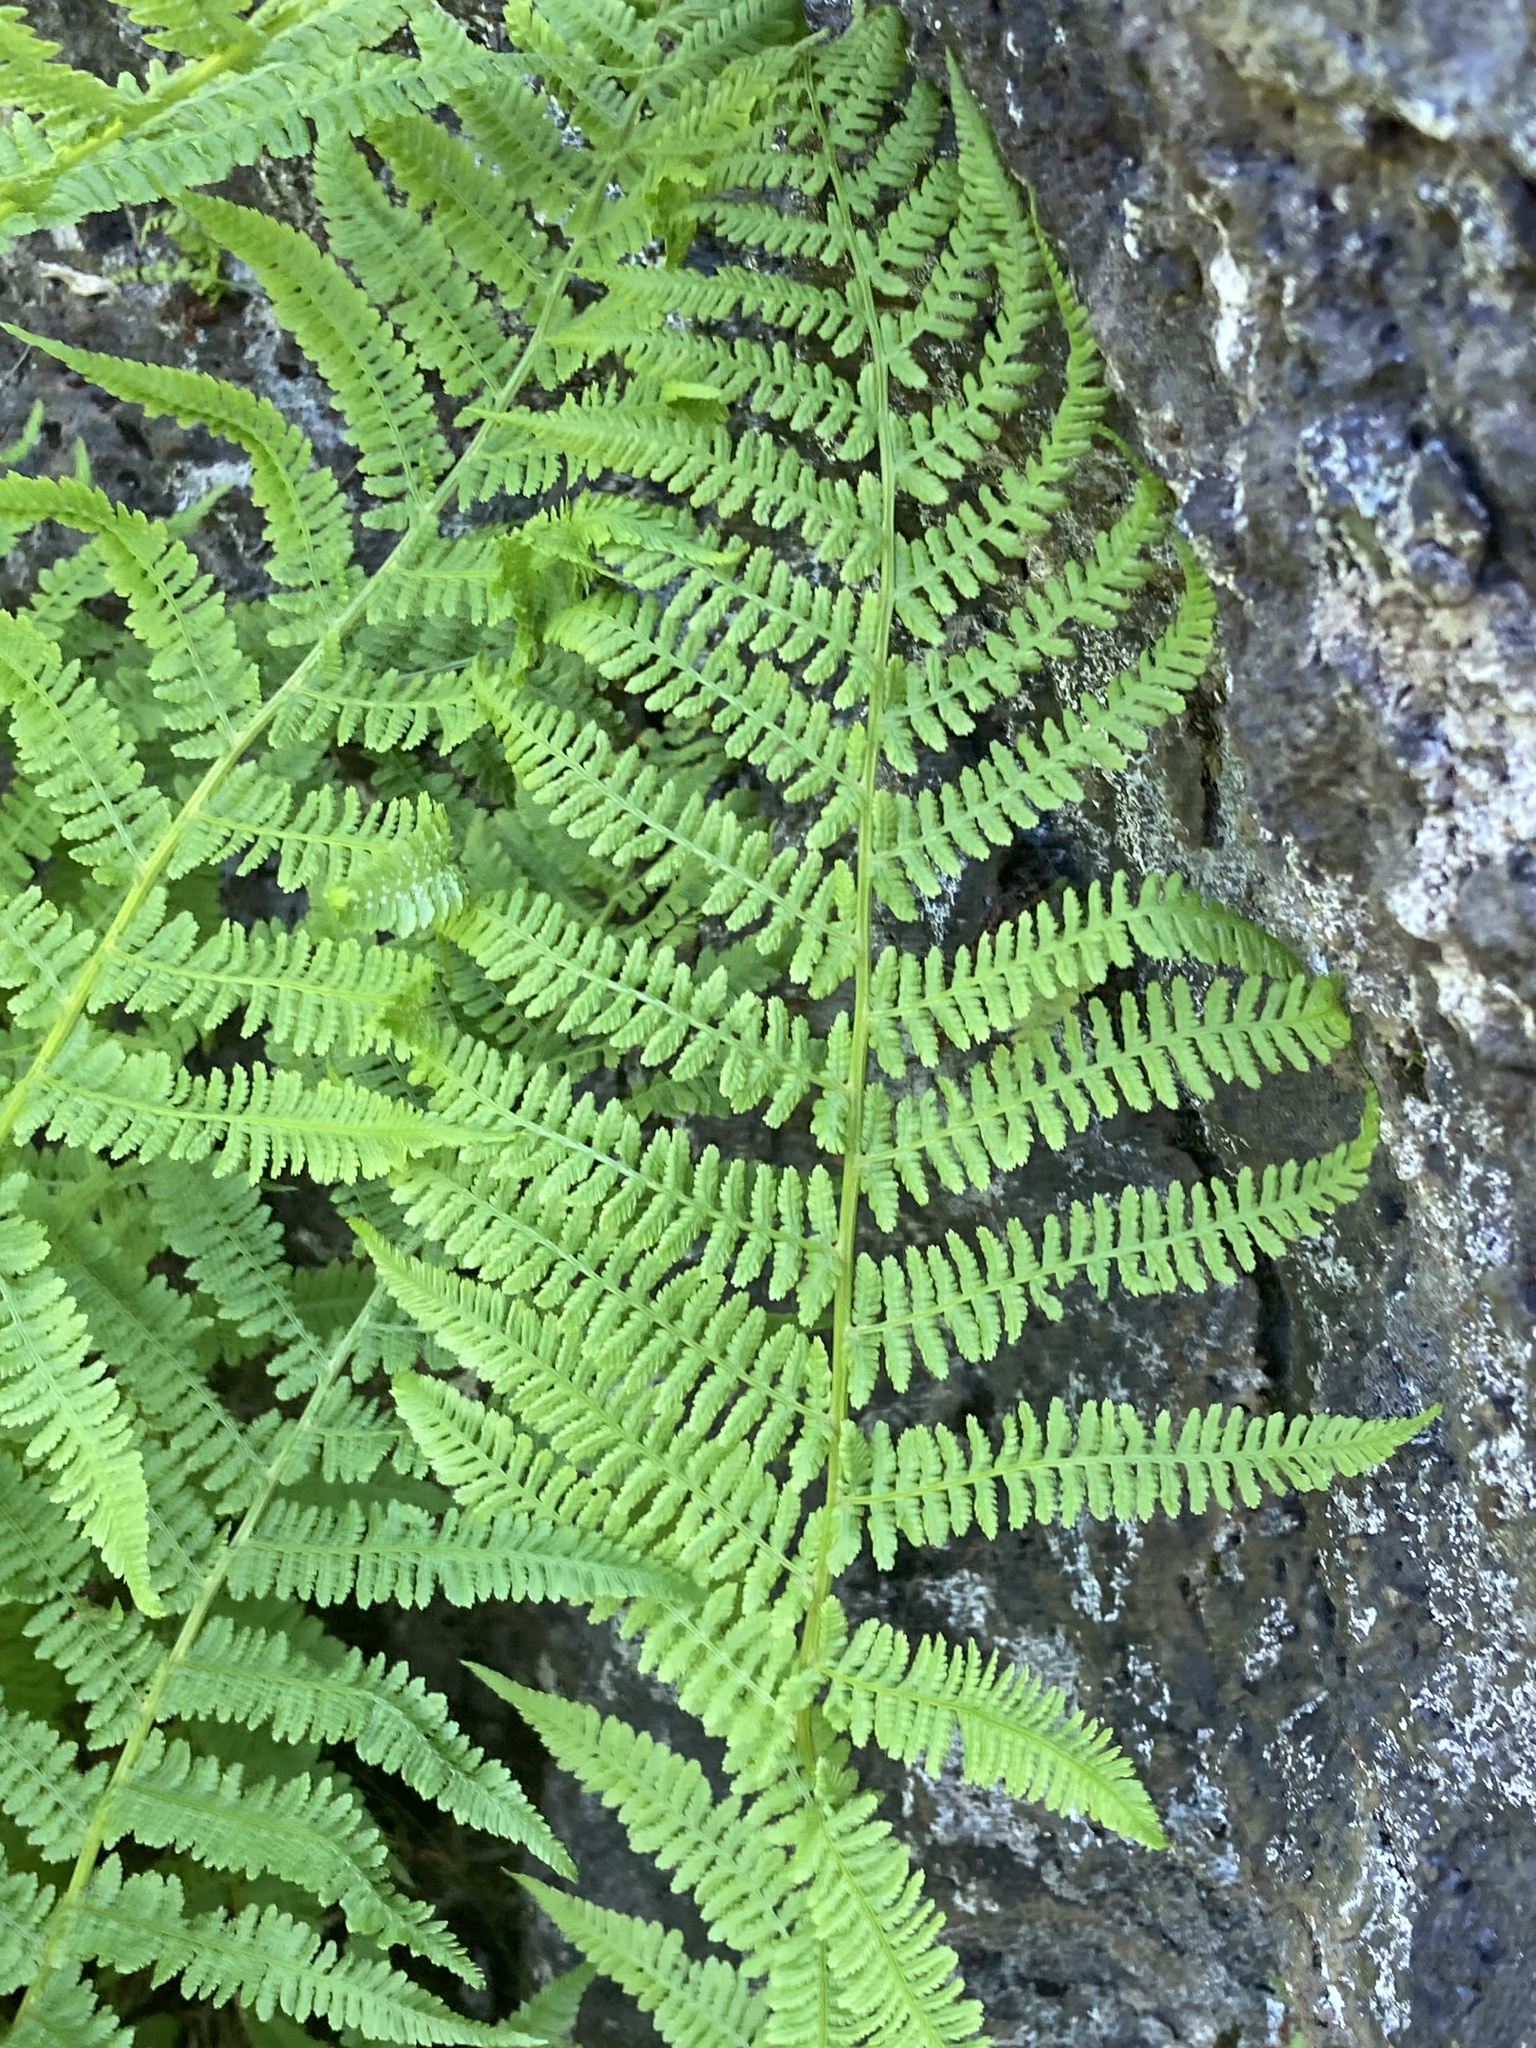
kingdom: Plantae
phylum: Tracheophyta
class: Polypodiopsida
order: Polypodiales
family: Athyriaceae
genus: Athyrium
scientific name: Athyrium filix-femina
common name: Lady fern
